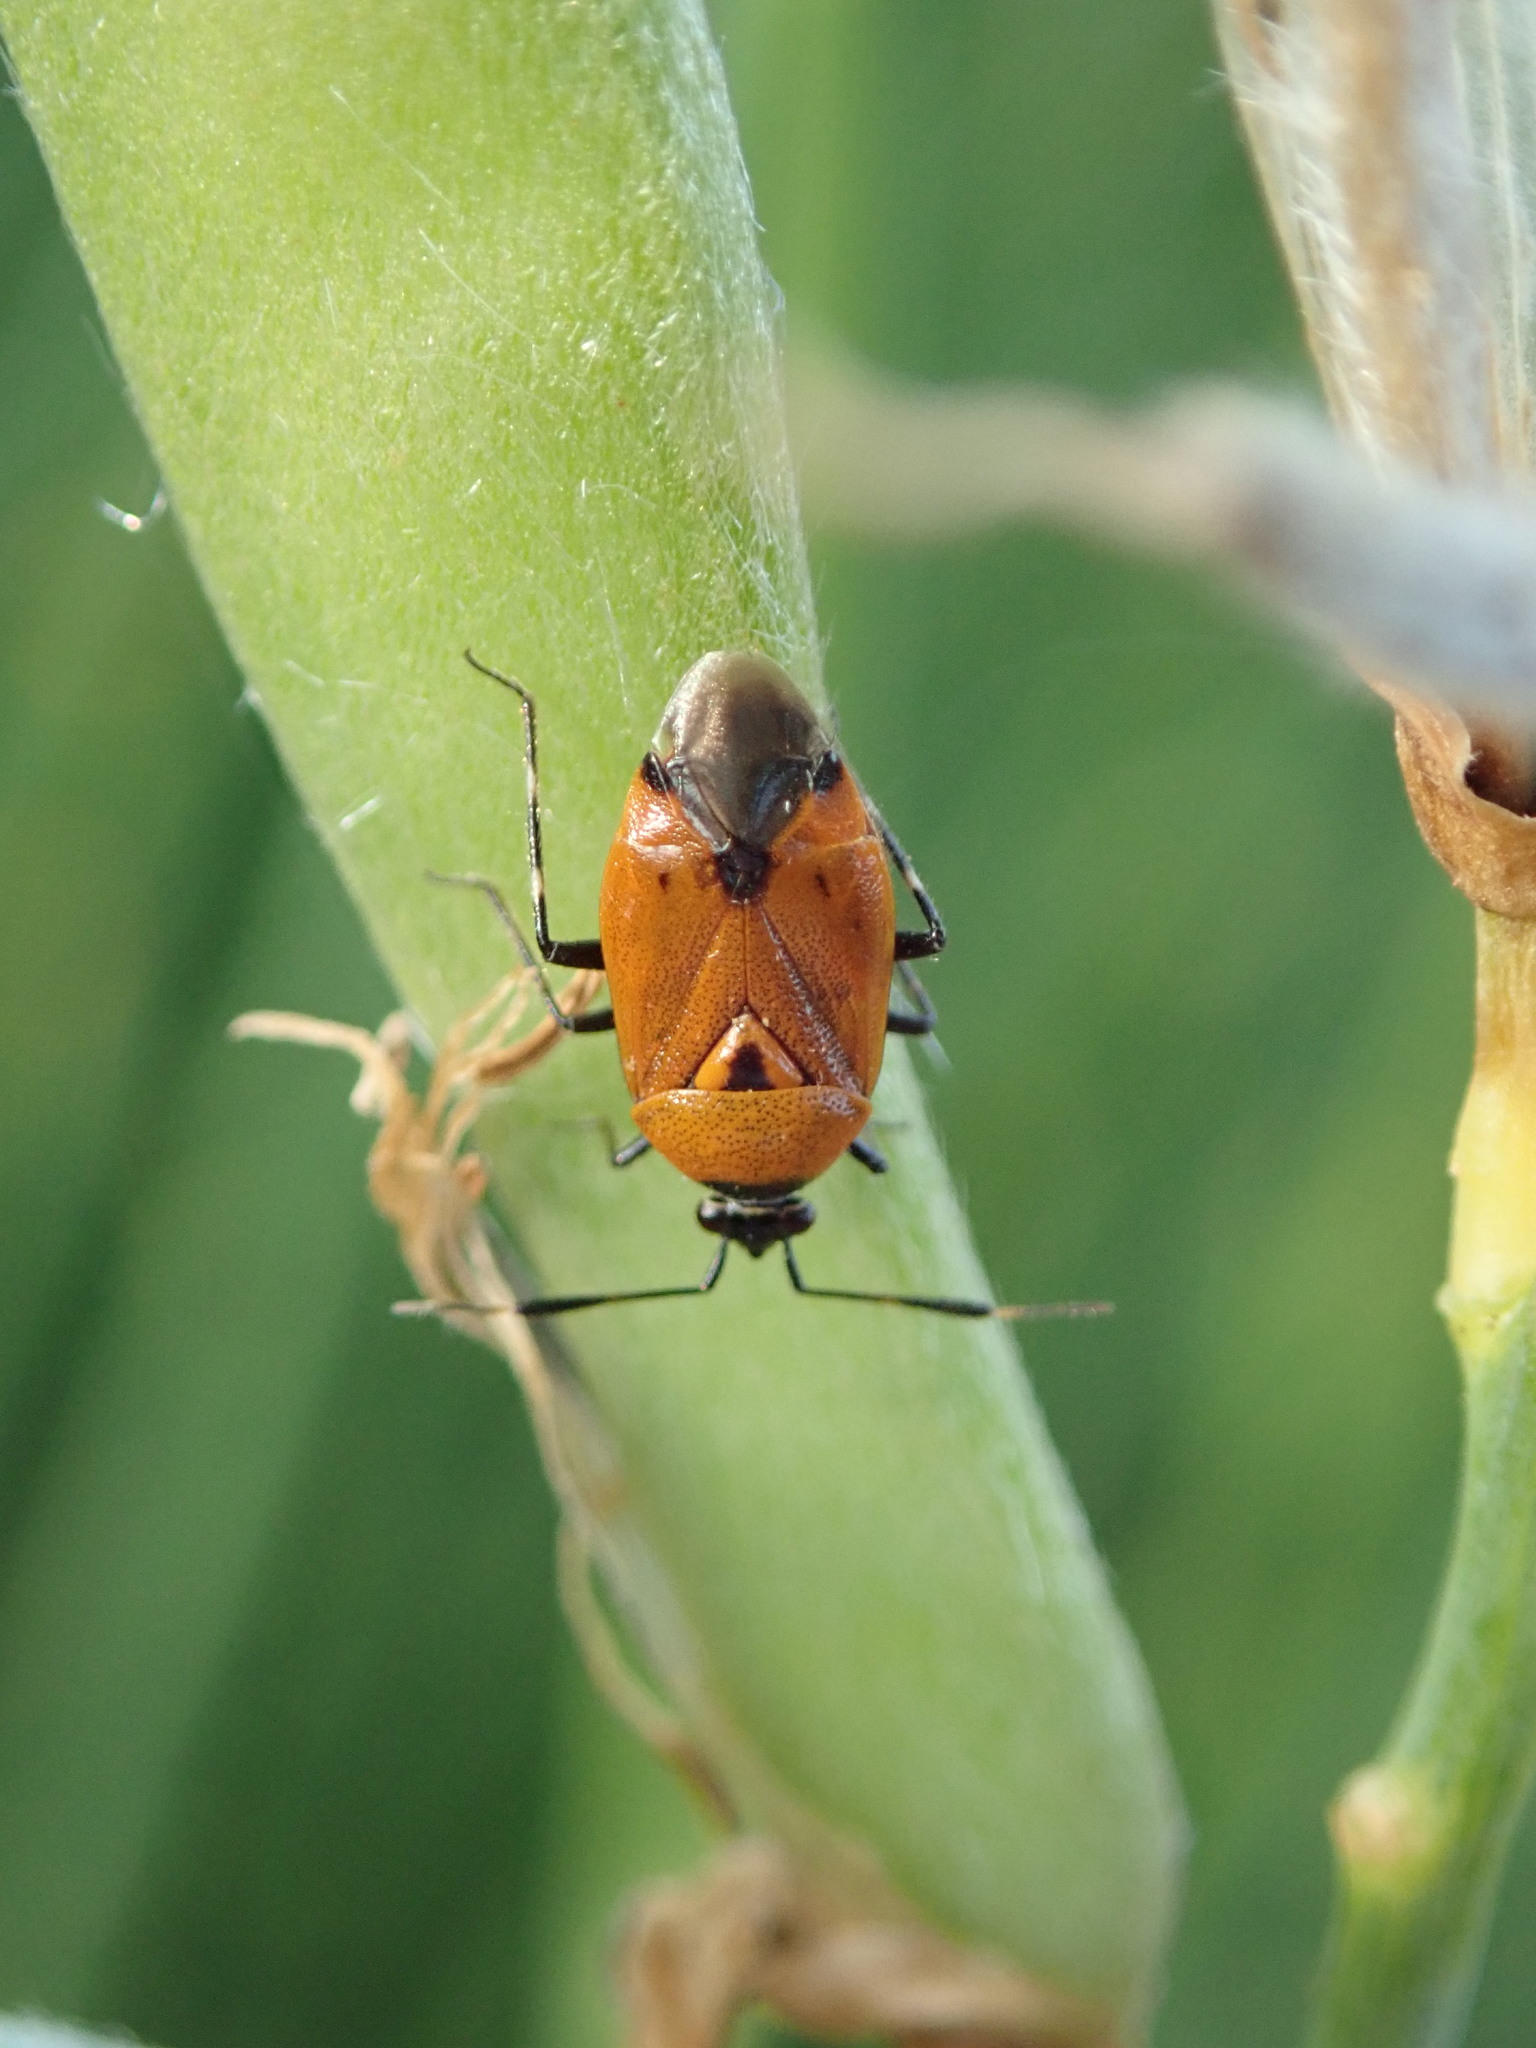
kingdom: Animalia
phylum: Arthropoda
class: Insecta
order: Hemiptera
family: Miridae
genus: Deraeocoris
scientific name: Deraeocoris punctum
